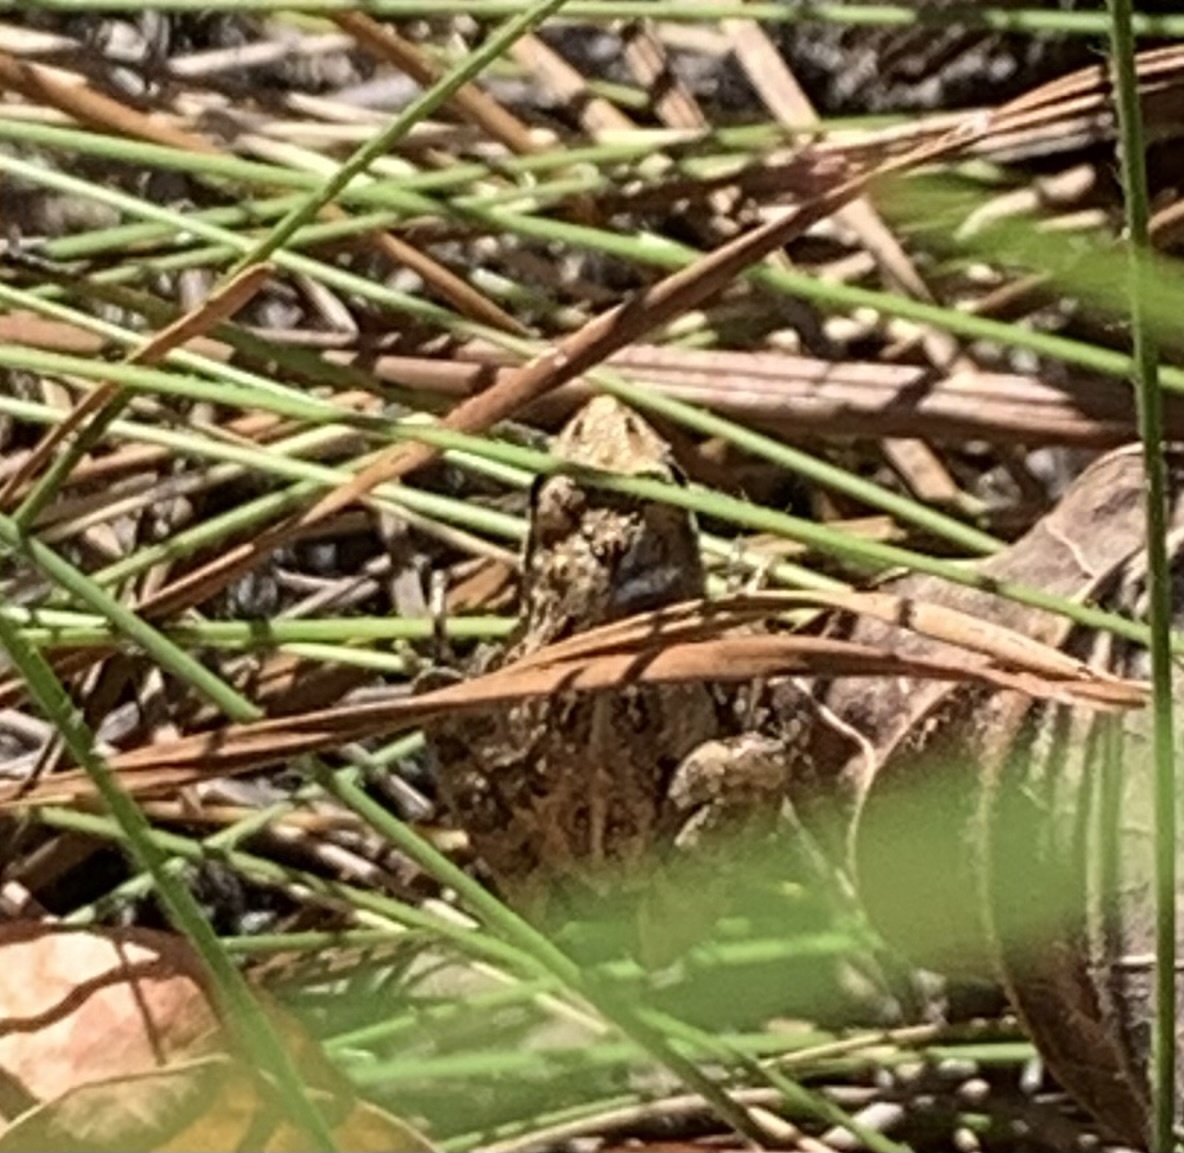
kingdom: Animalia
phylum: Chordata
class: Amphibia
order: Anura
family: Hylidae
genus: Acris
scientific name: Acris gryllus
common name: Southern cricket frog
